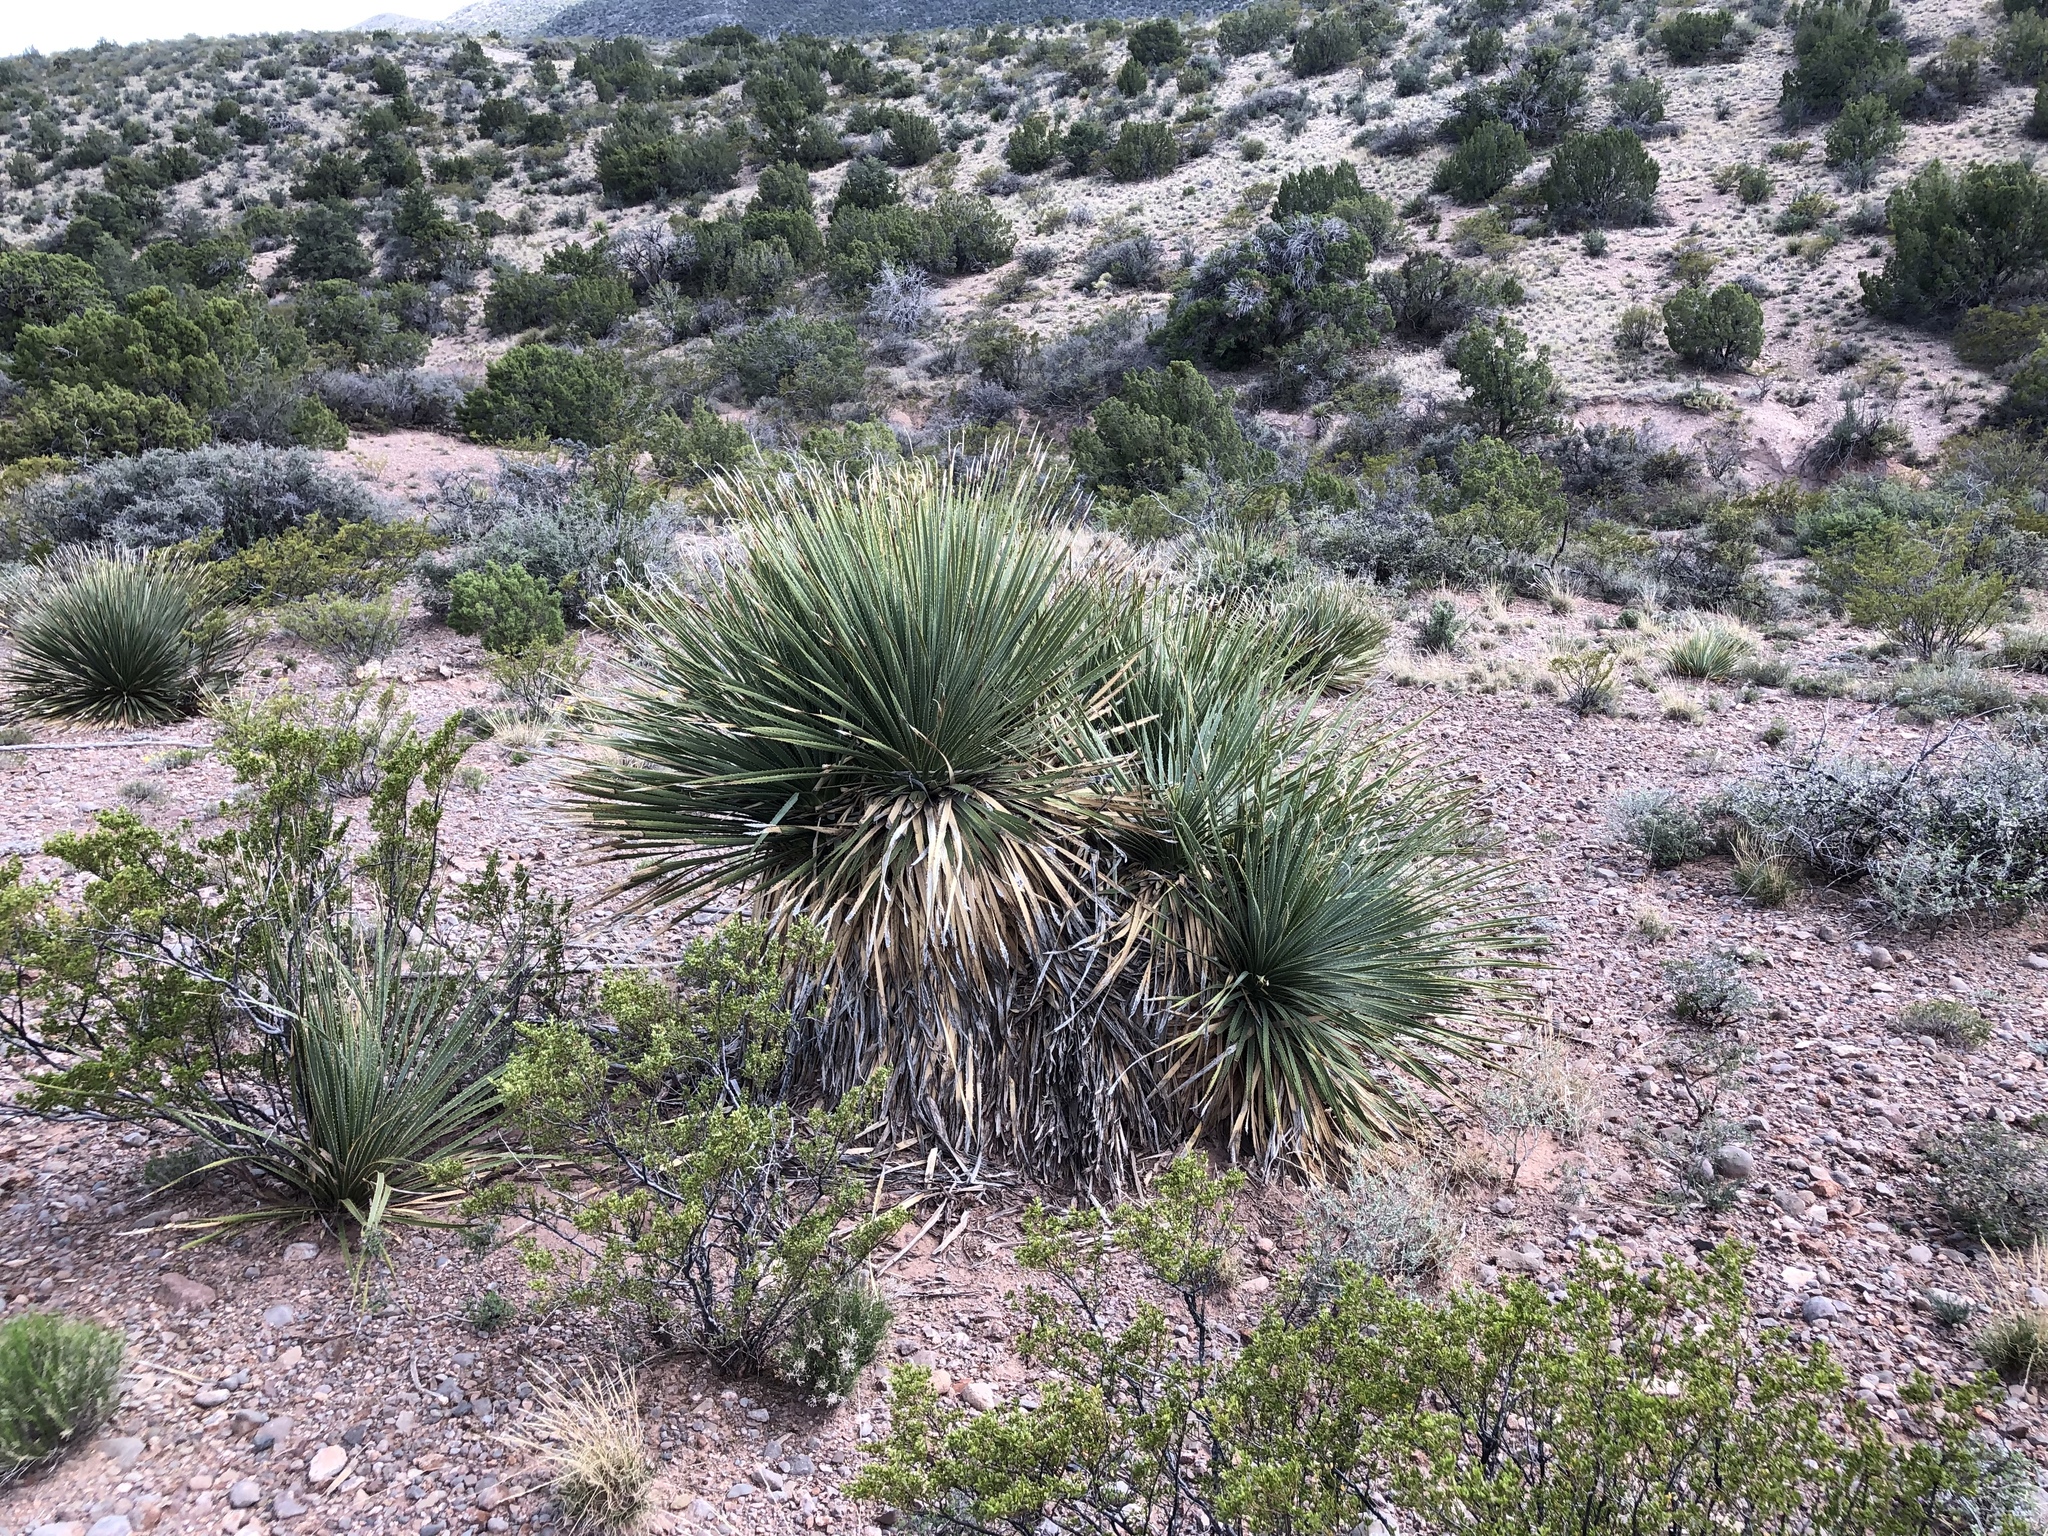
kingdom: Plantae
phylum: Tracheophyta
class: Liliopsida
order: Asparagales
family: Asparagaceae
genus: Dasylirion
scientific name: Dasylirion wheeleri
